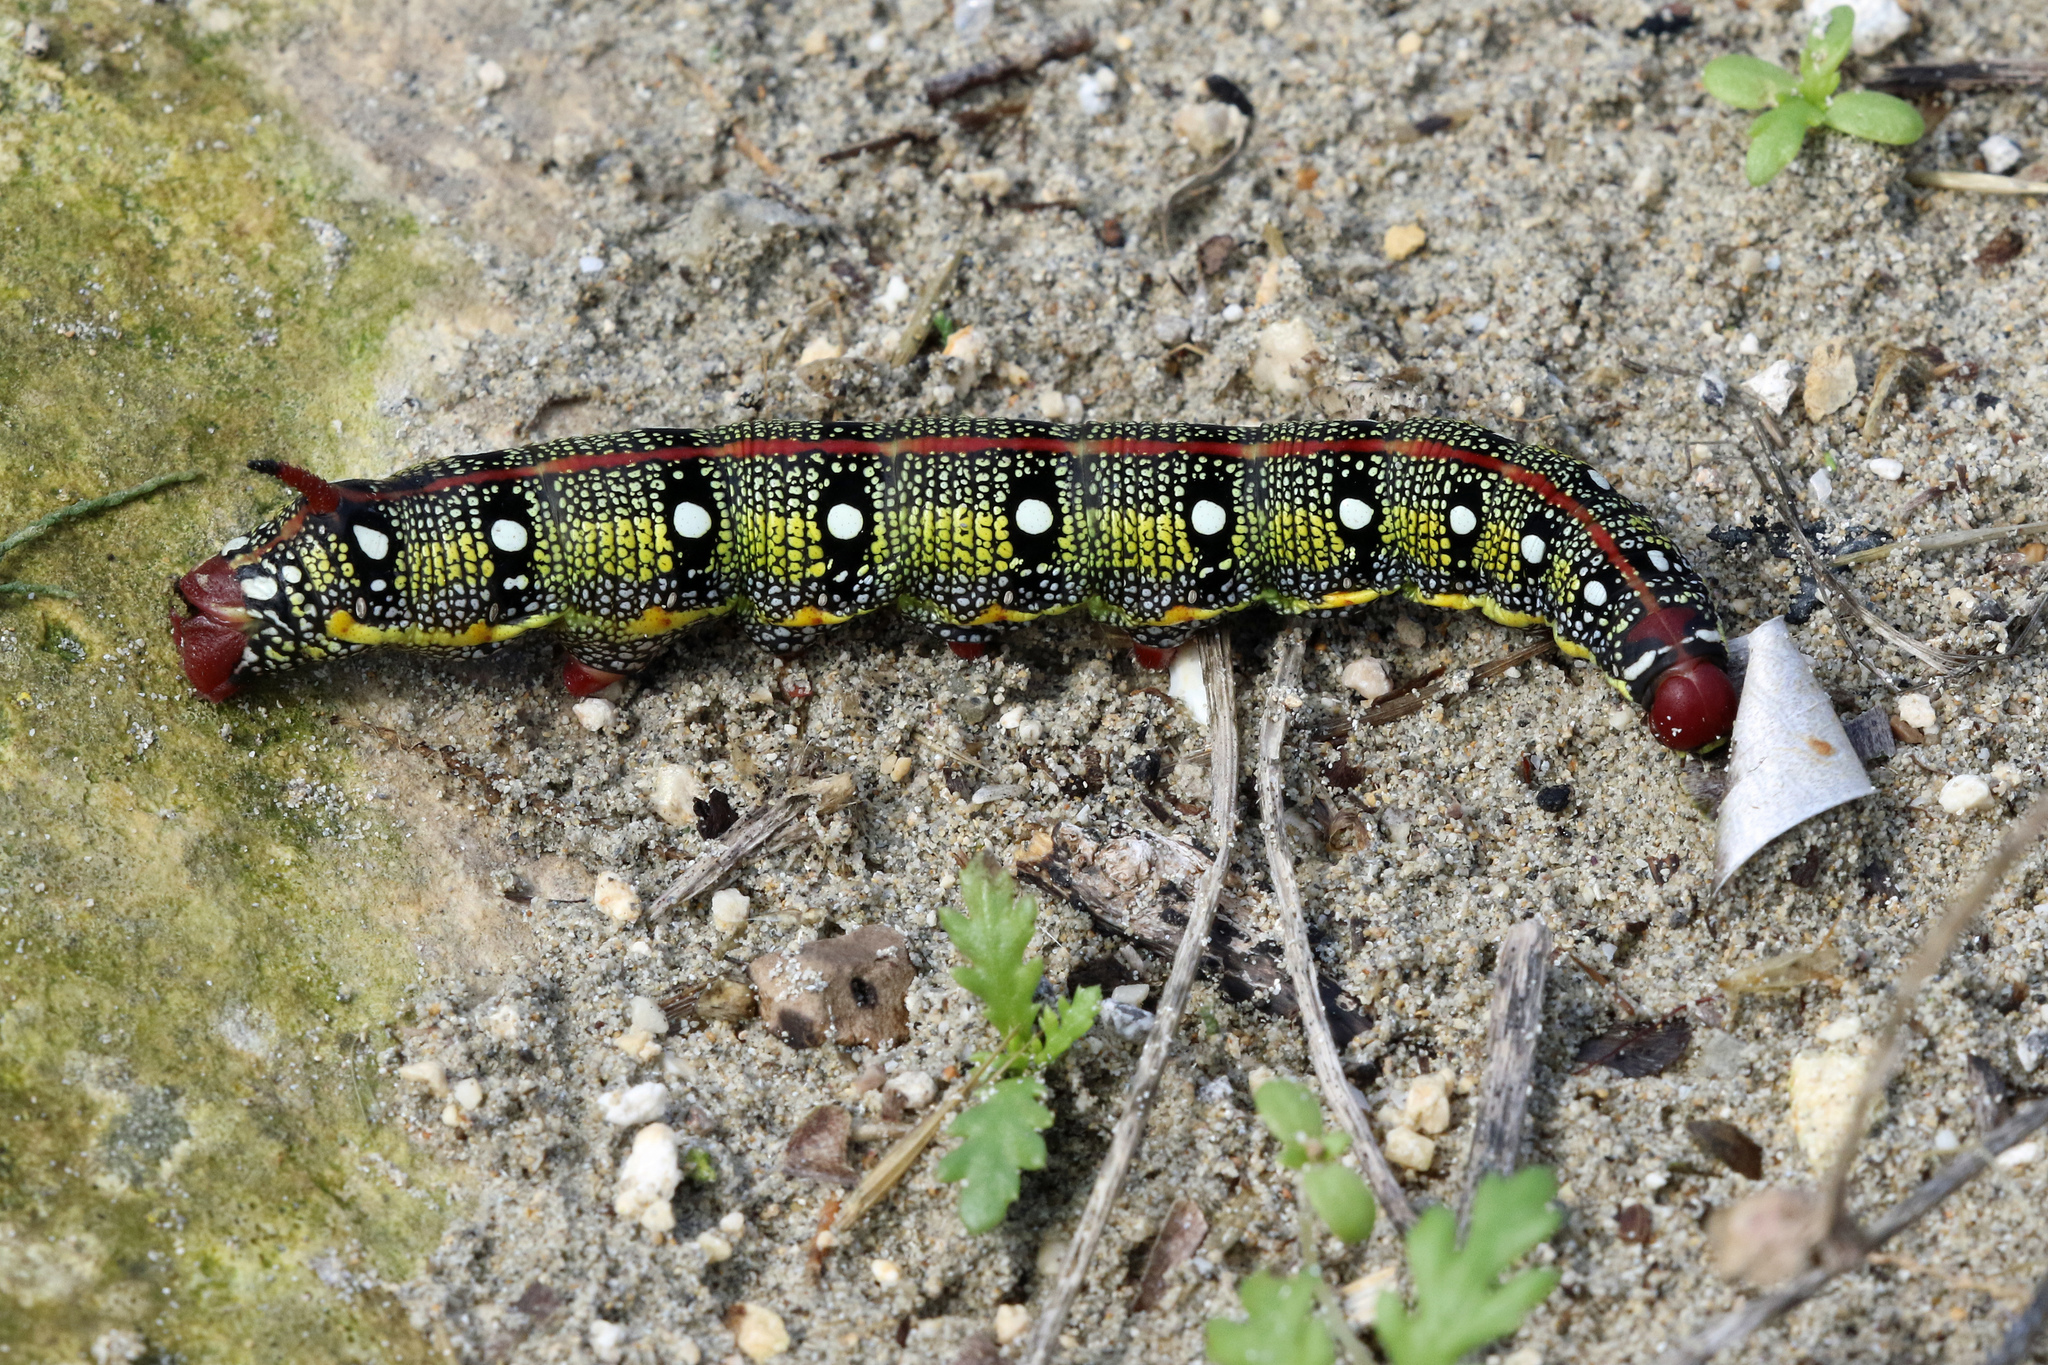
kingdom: Animalia
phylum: Arthropoda
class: Insecta
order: Lepidoptera
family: Sphingidae
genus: Hyles
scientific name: Hyles euphorbiae
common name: Spurge hawk-moth
